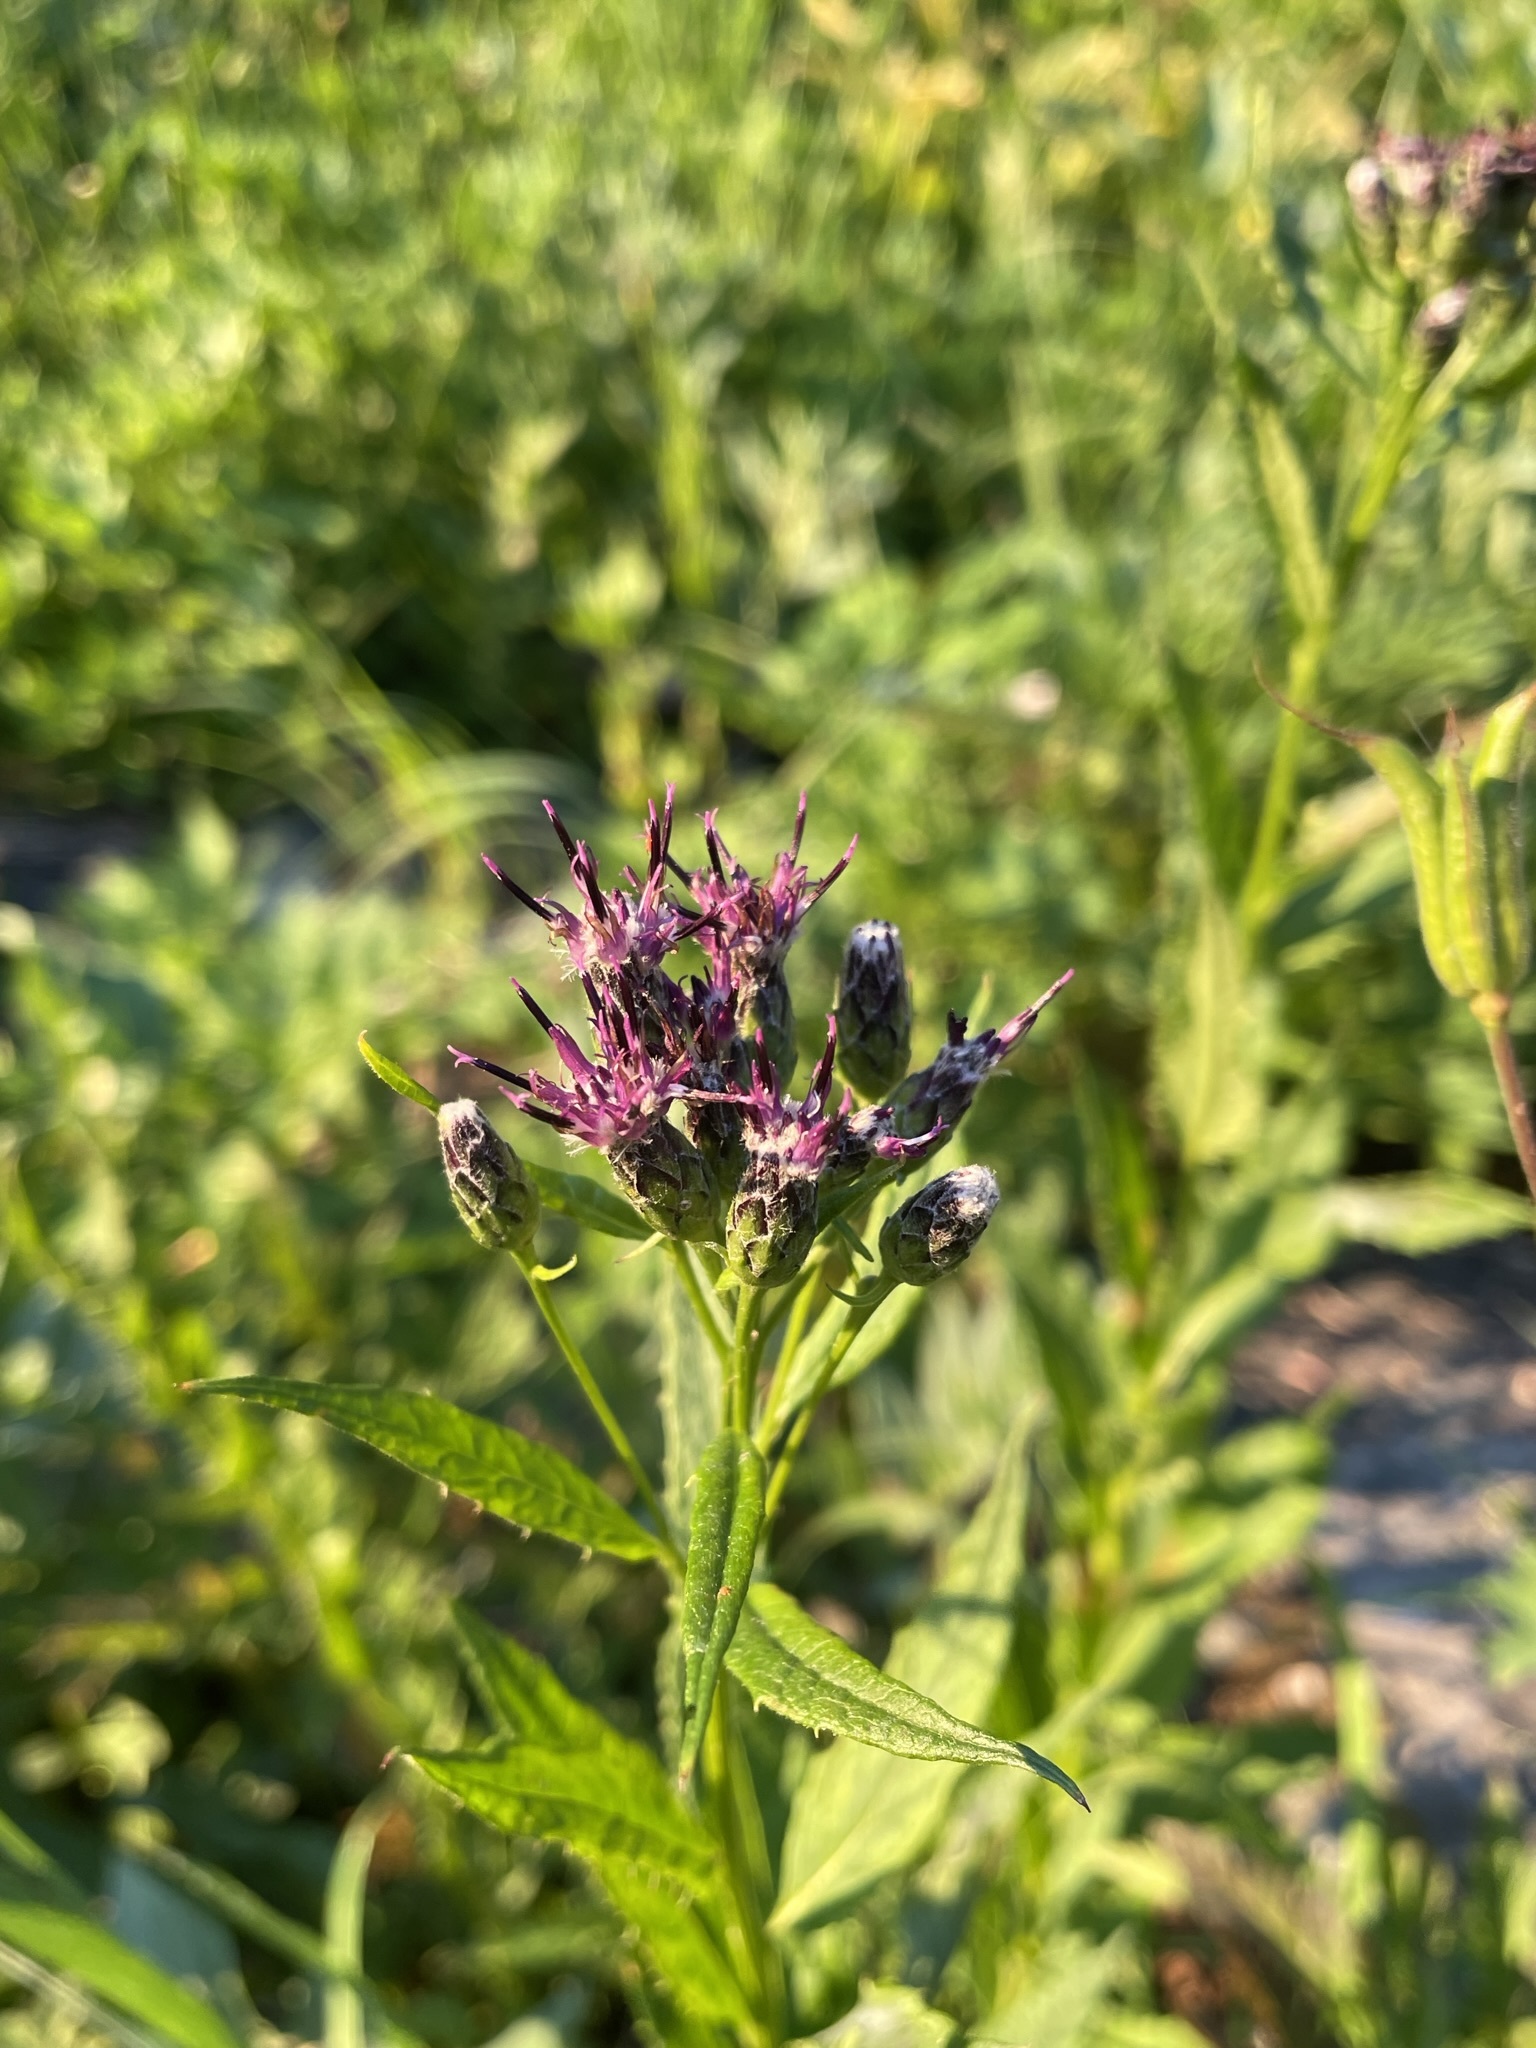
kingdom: Plantae
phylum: Tracheophyta
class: Magnoliopsida
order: Asterales
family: Asteraceae
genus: Saussurea
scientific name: Saussurea americana
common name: American saw-wort
